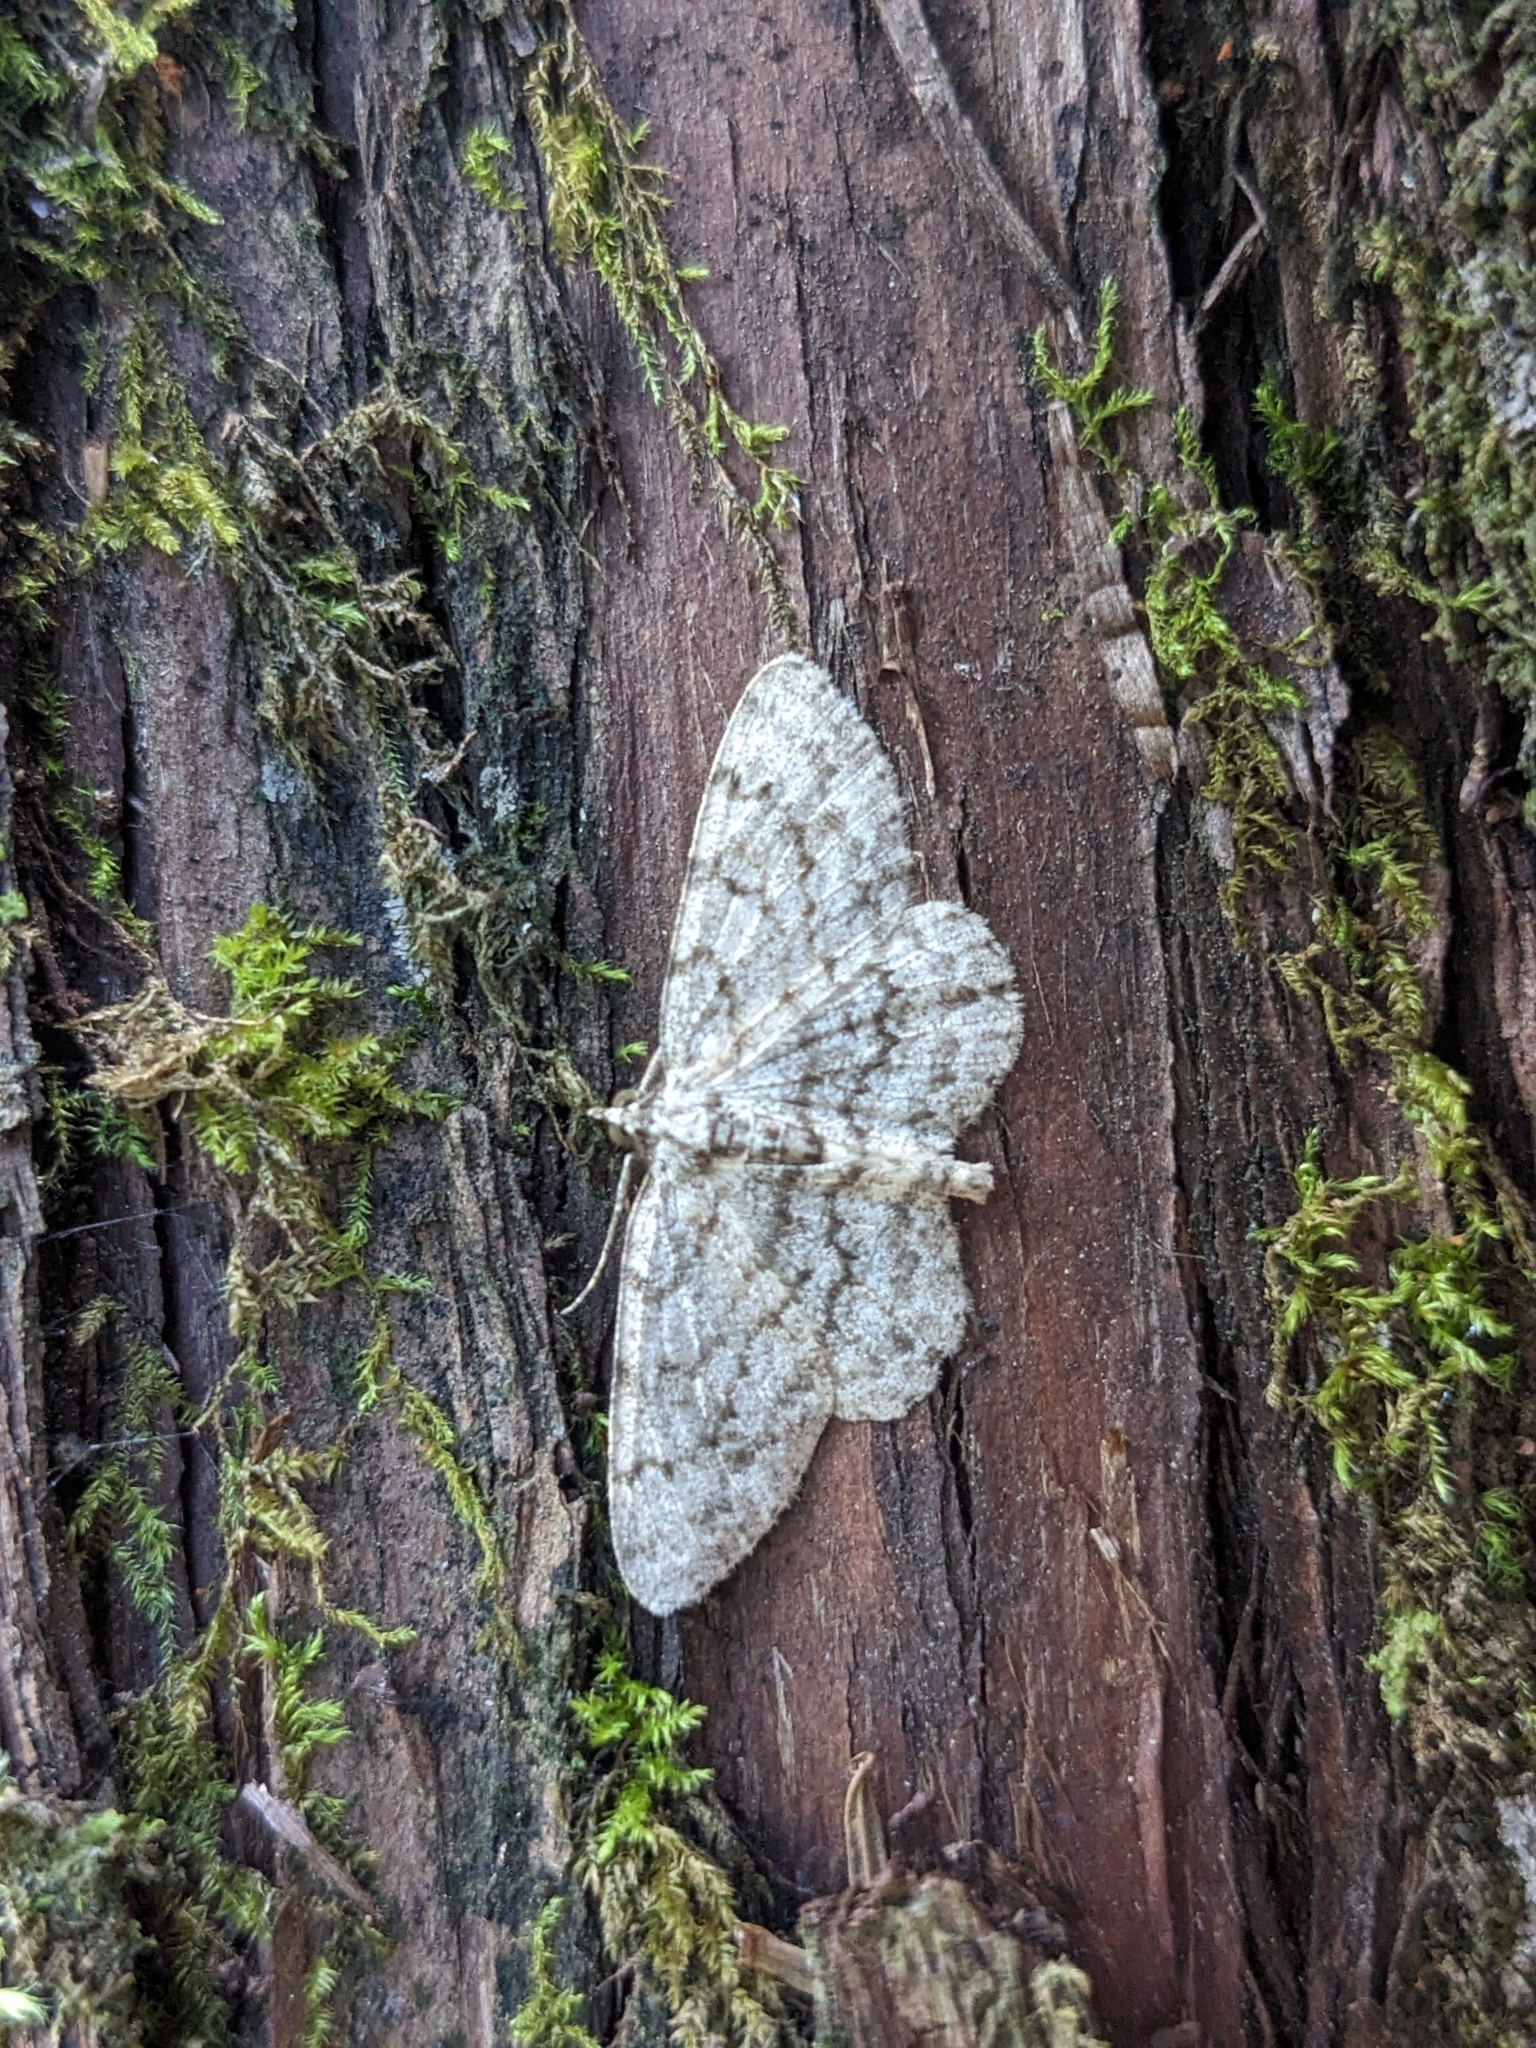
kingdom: Animalia
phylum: Arthropoda
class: Insecta
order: Lepidoptera
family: Geometridae
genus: Protoboarmia
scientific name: Protoboarmia porcelaria
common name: Porcelain gray
